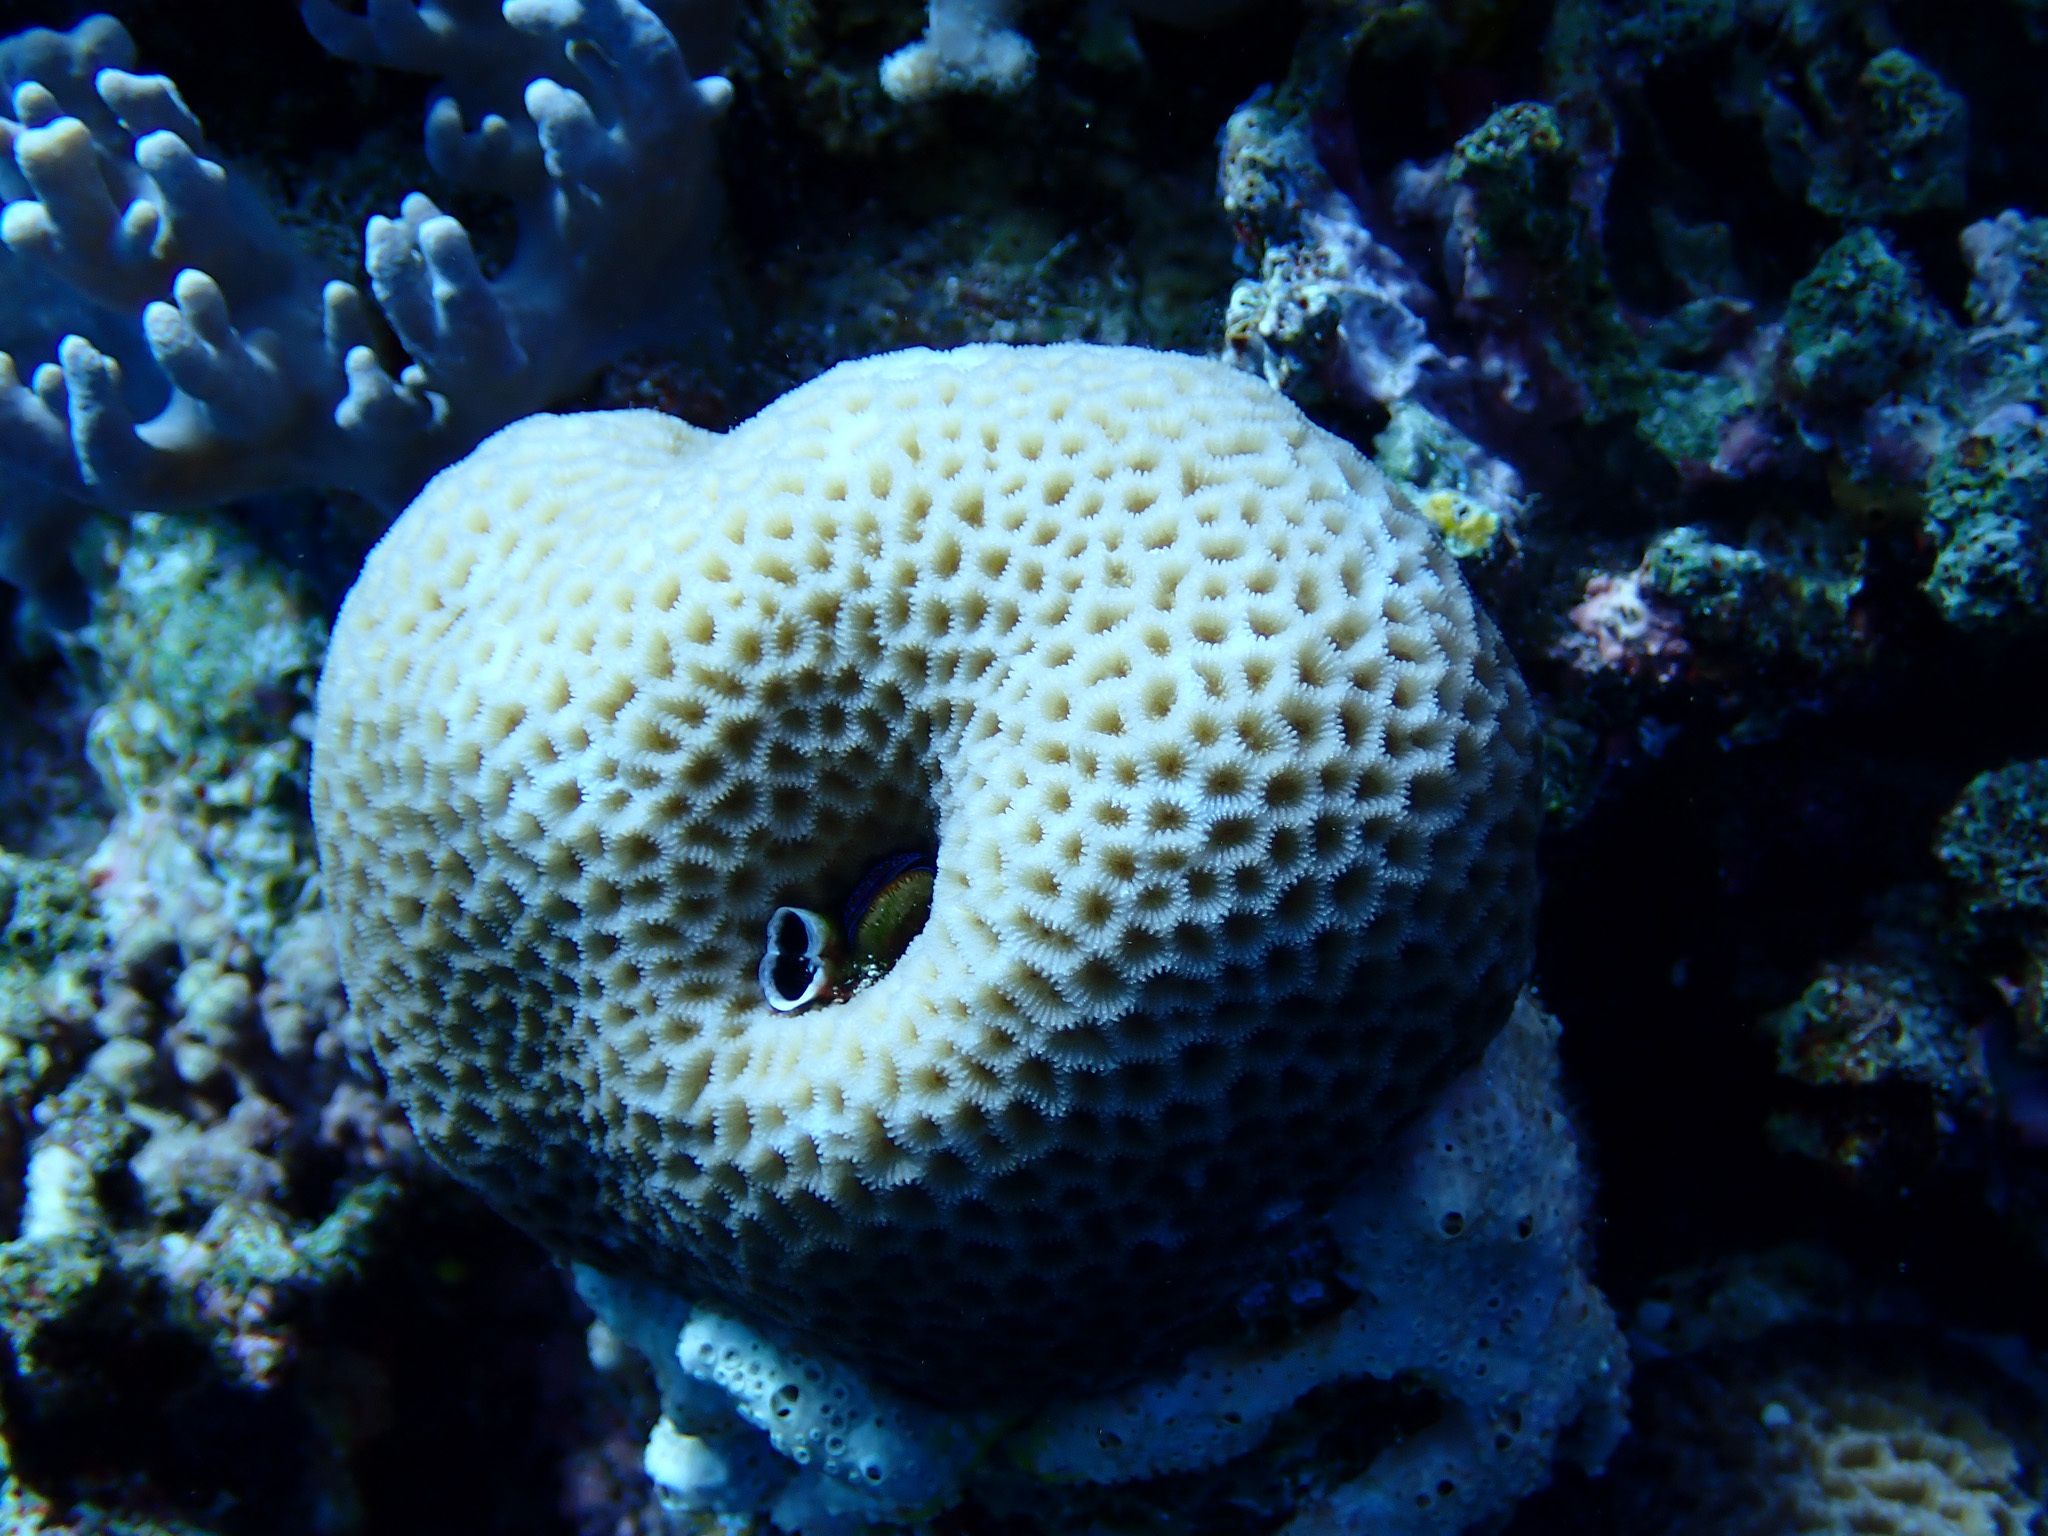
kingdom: Animalia
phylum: Cnidaria
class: Anthozoa
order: Scleractinia
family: Merulinidae
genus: Goniastrea
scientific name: Goniastrea
